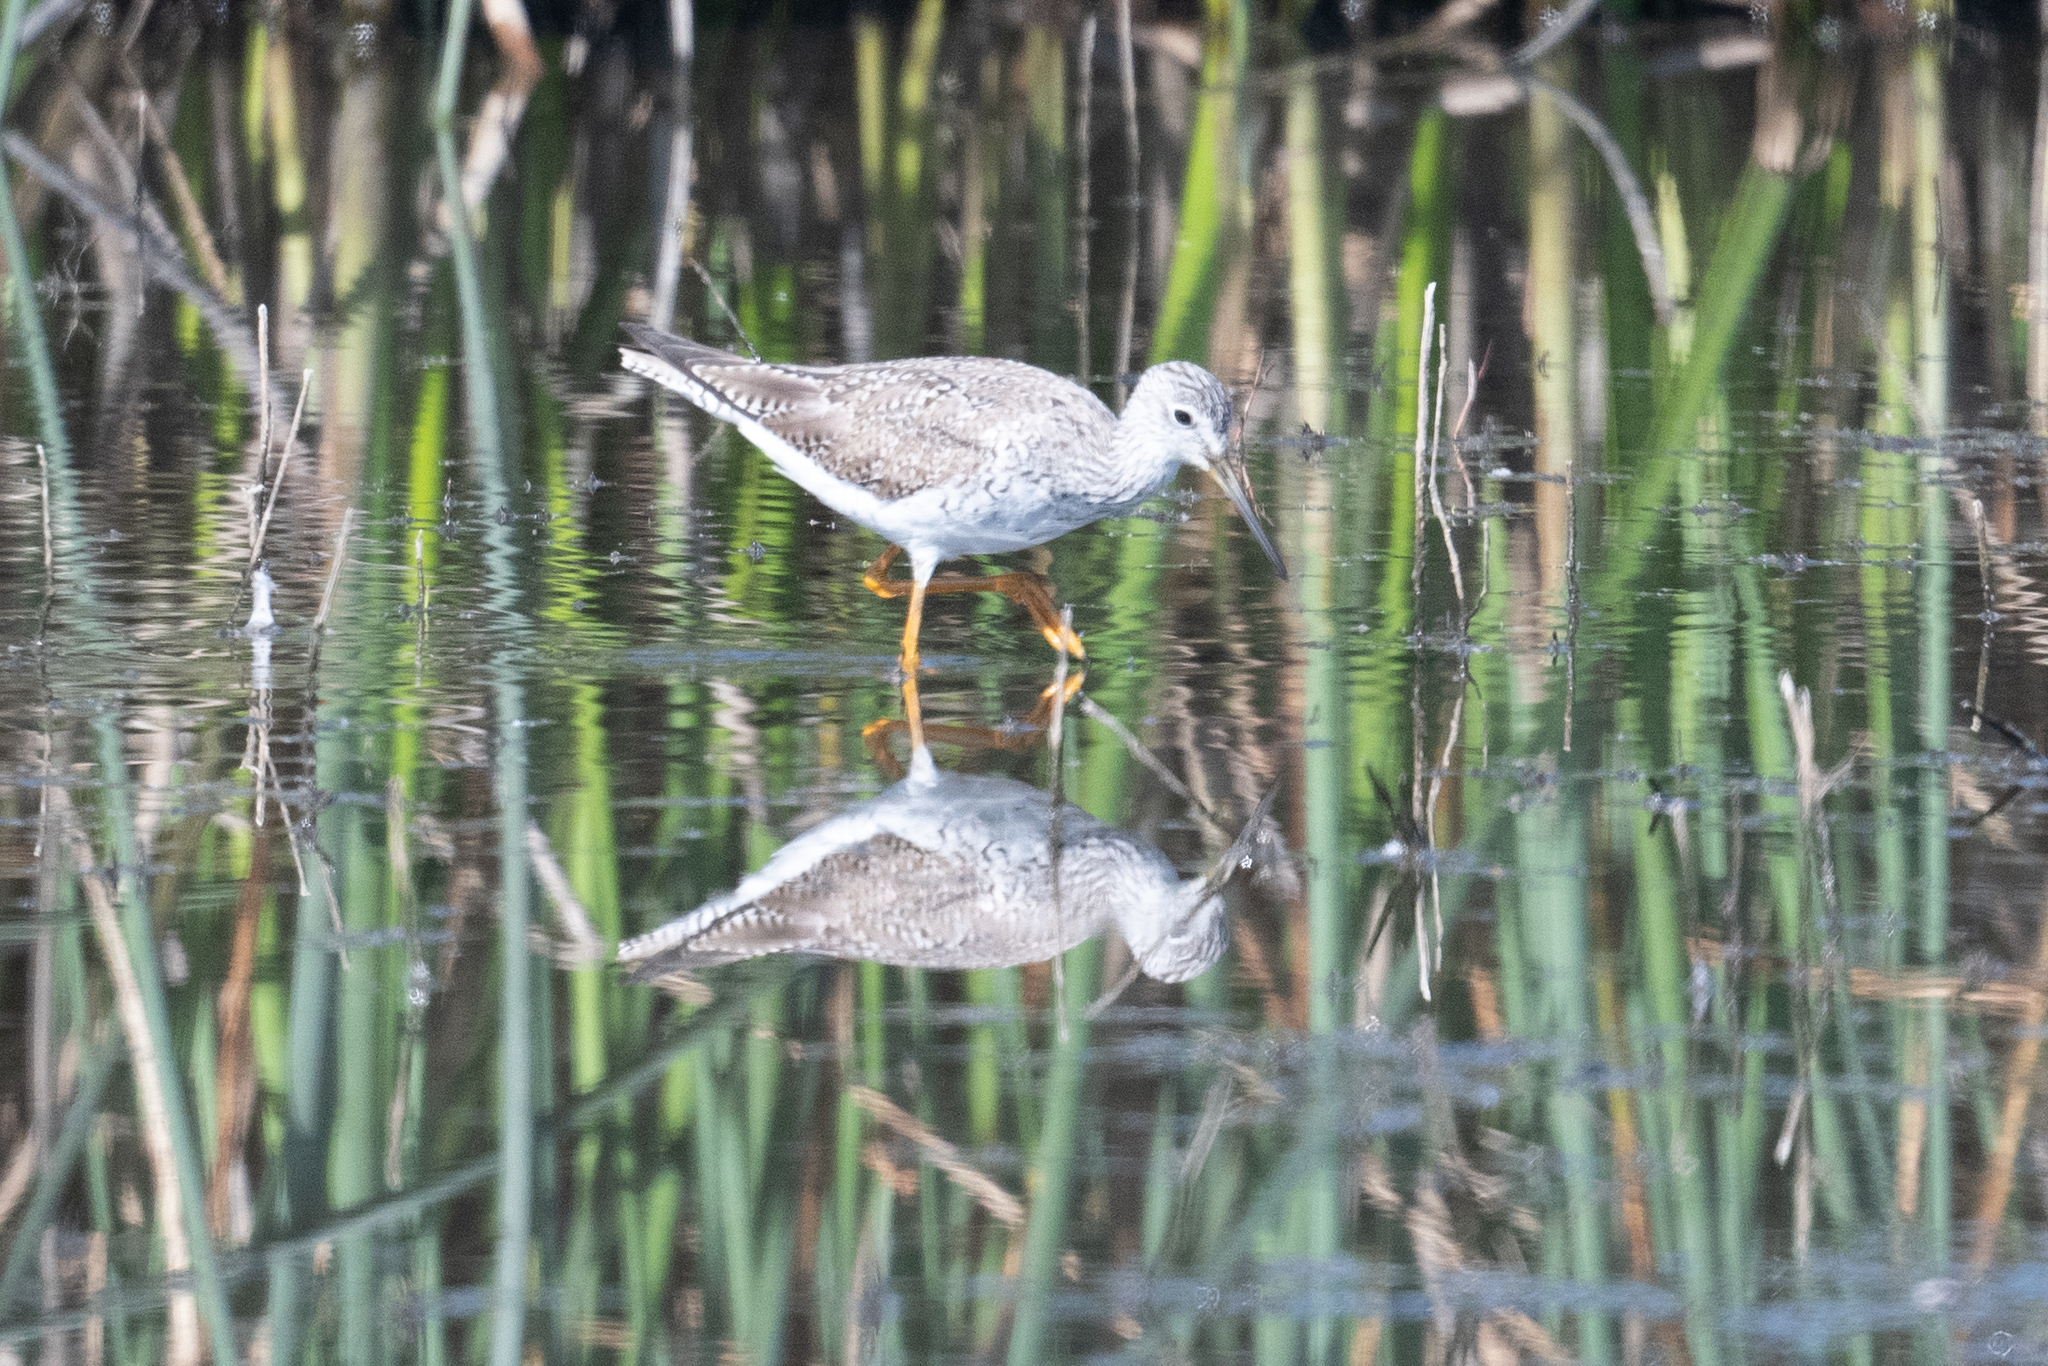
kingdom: Animalia
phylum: Chordata
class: Aves
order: Charadriiformes
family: Scolopacidae
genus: Tringa
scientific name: Tringa melanoleuca
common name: Greater yellowlegs
